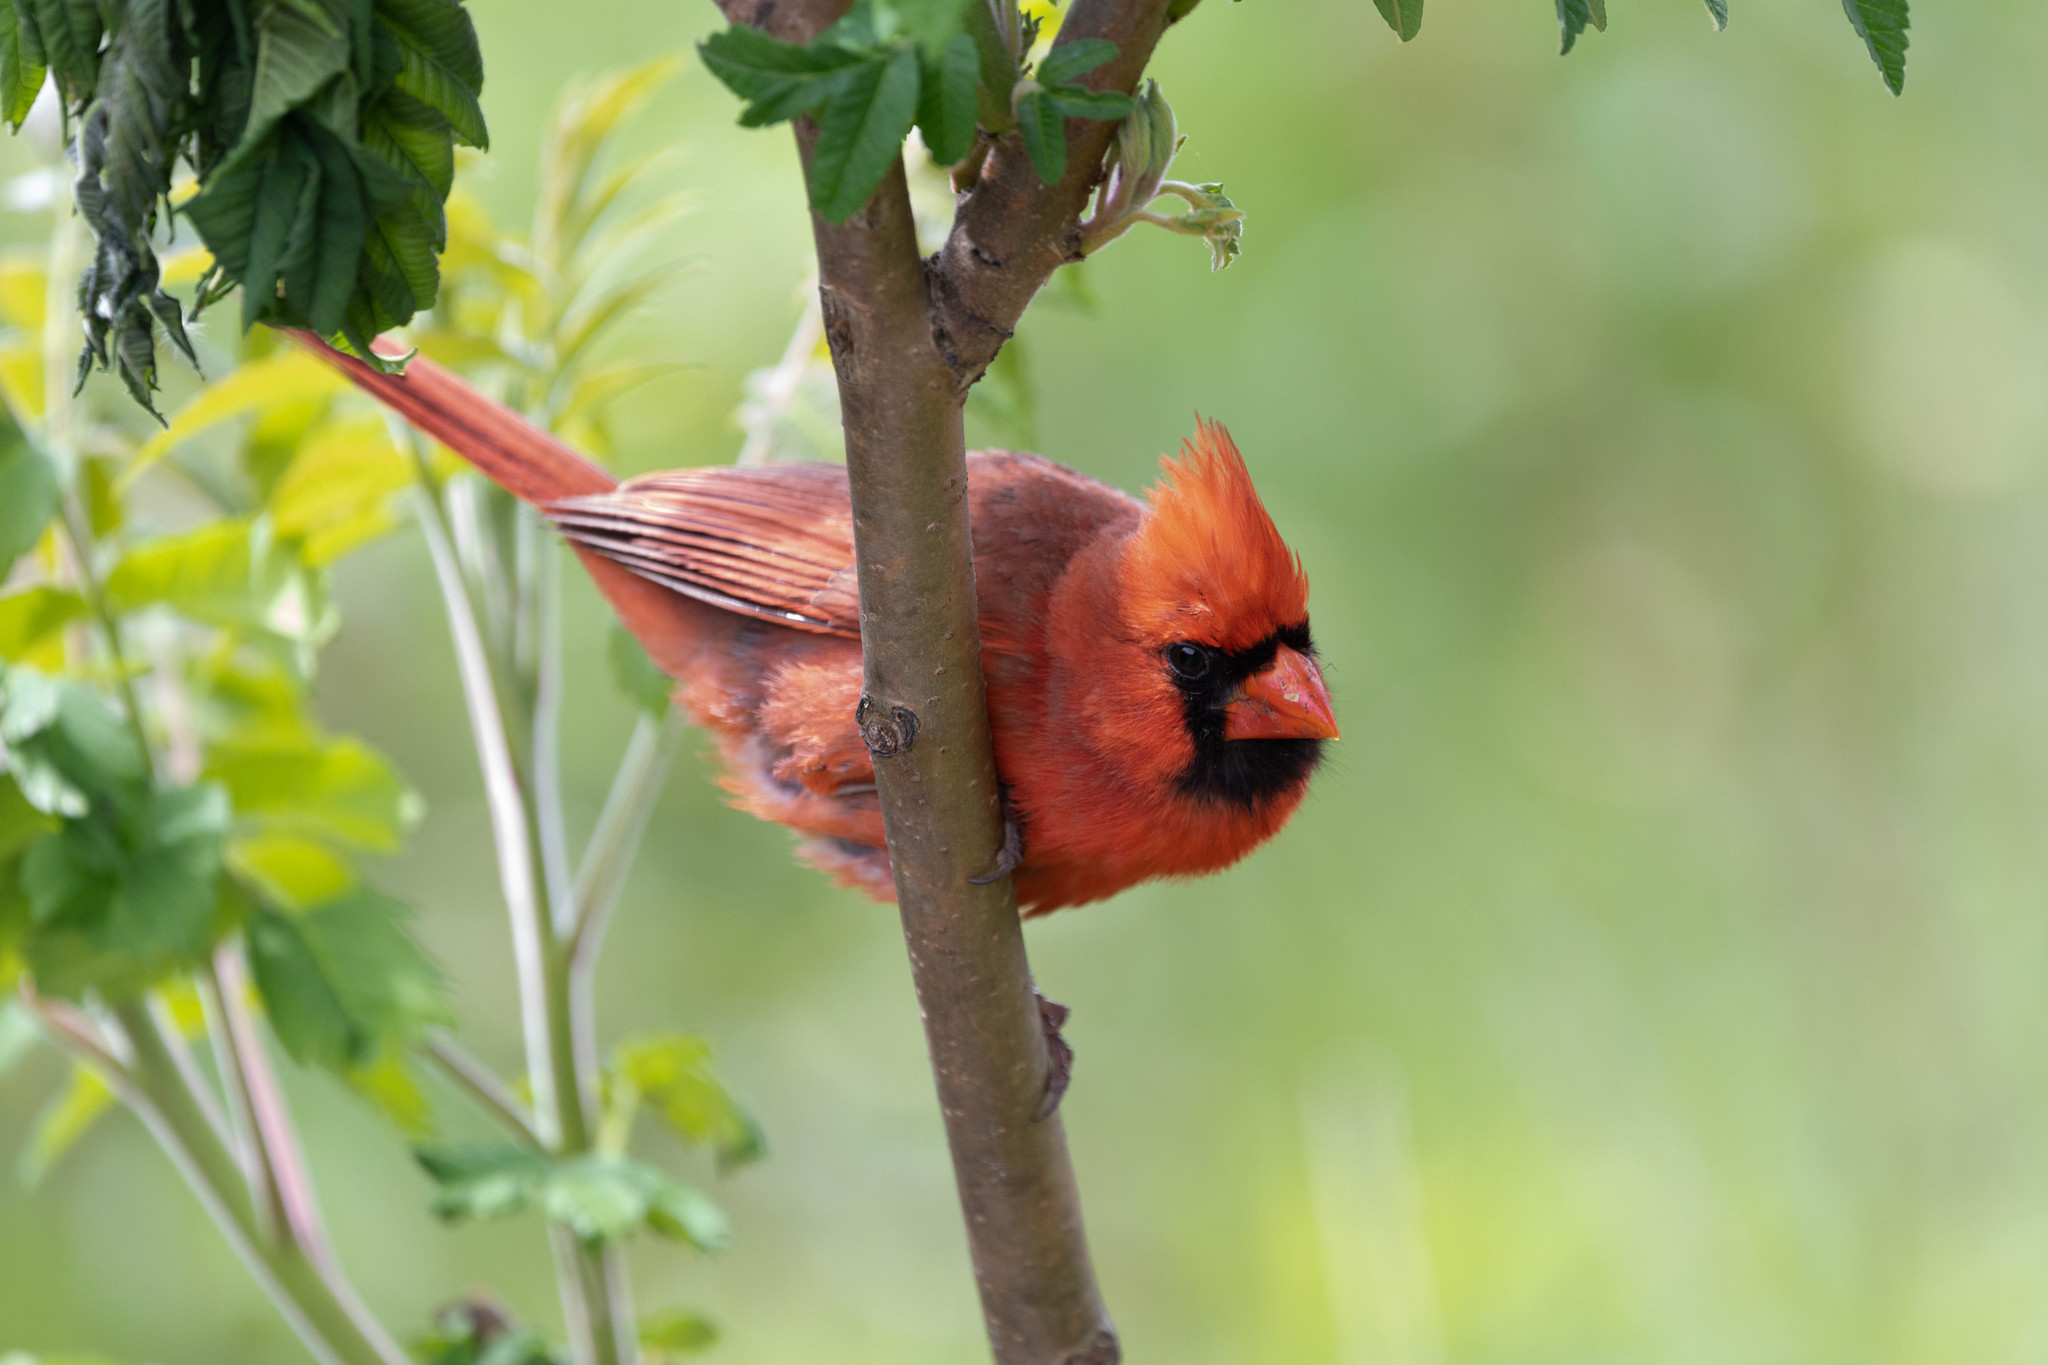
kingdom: Animalia
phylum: Chordata
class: Aves
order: Passeriformes
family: Cardinalidae
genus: Cardinalis
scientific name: Cardinalis cardinalis
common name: Northern cardinal
